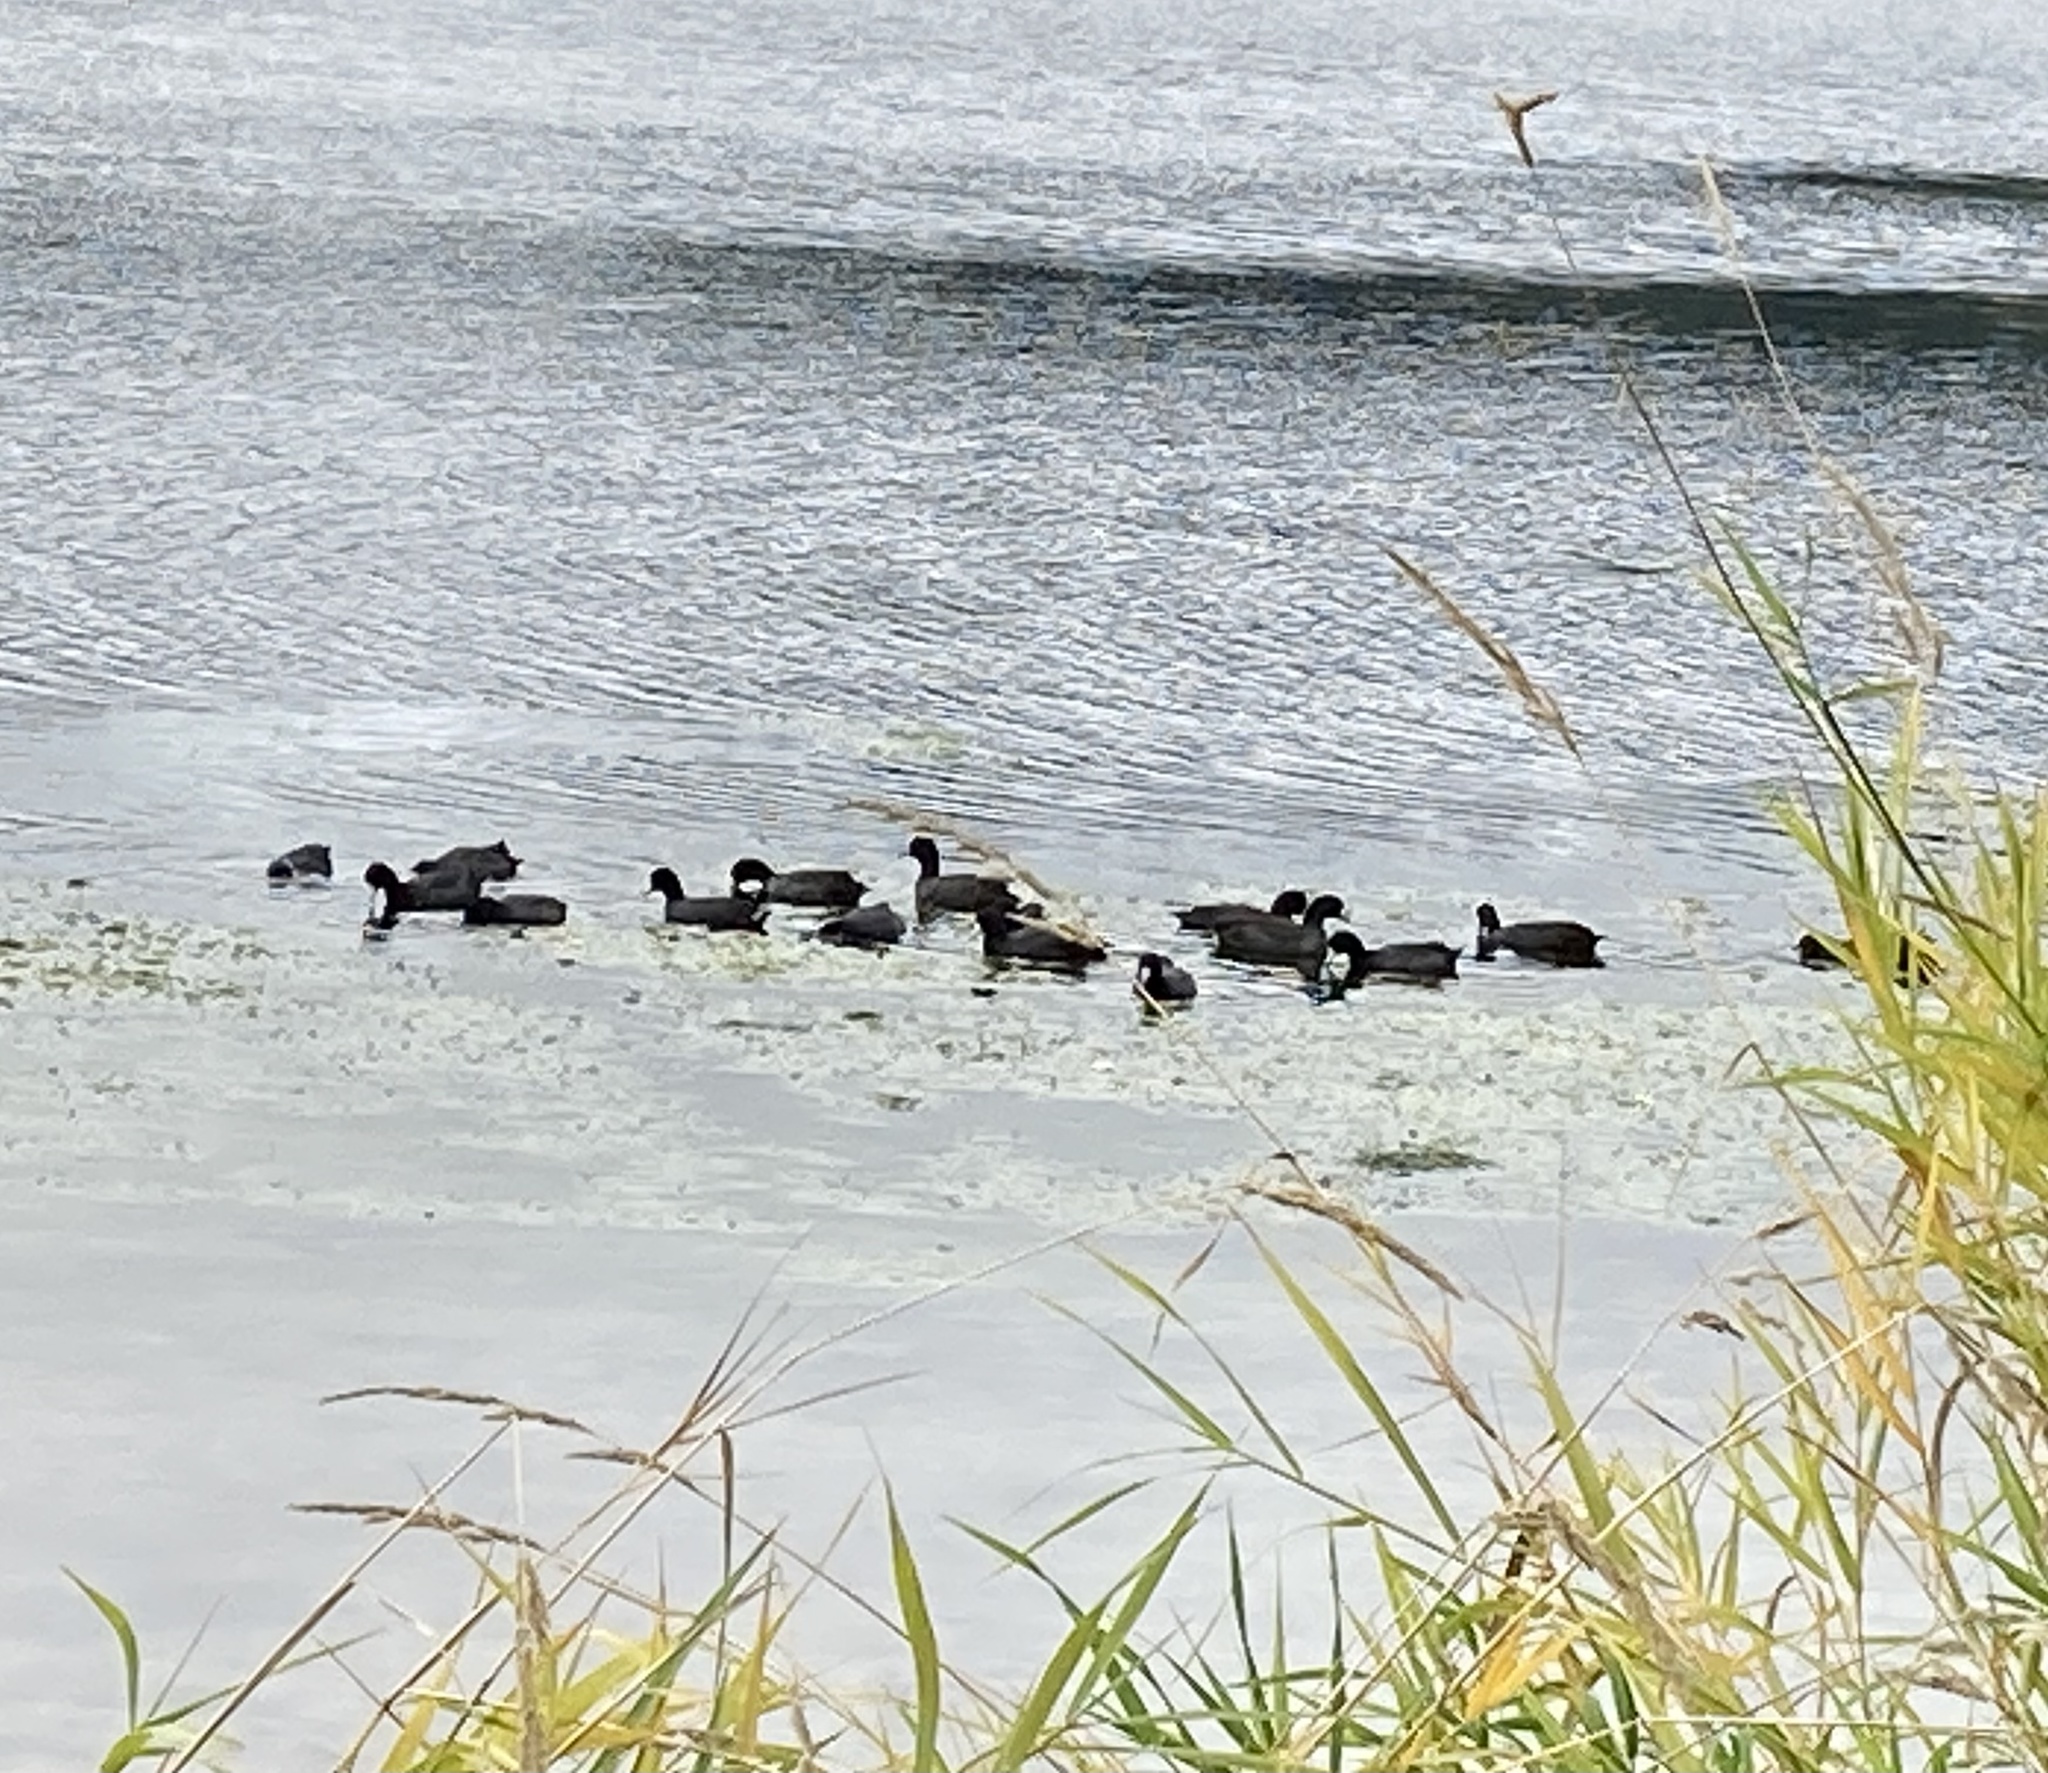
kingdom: Animalia
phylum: Chordata
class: Aves
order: Gruiformes
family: Rallidae
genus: Fulica
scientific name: Fulica americana
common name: American coot
